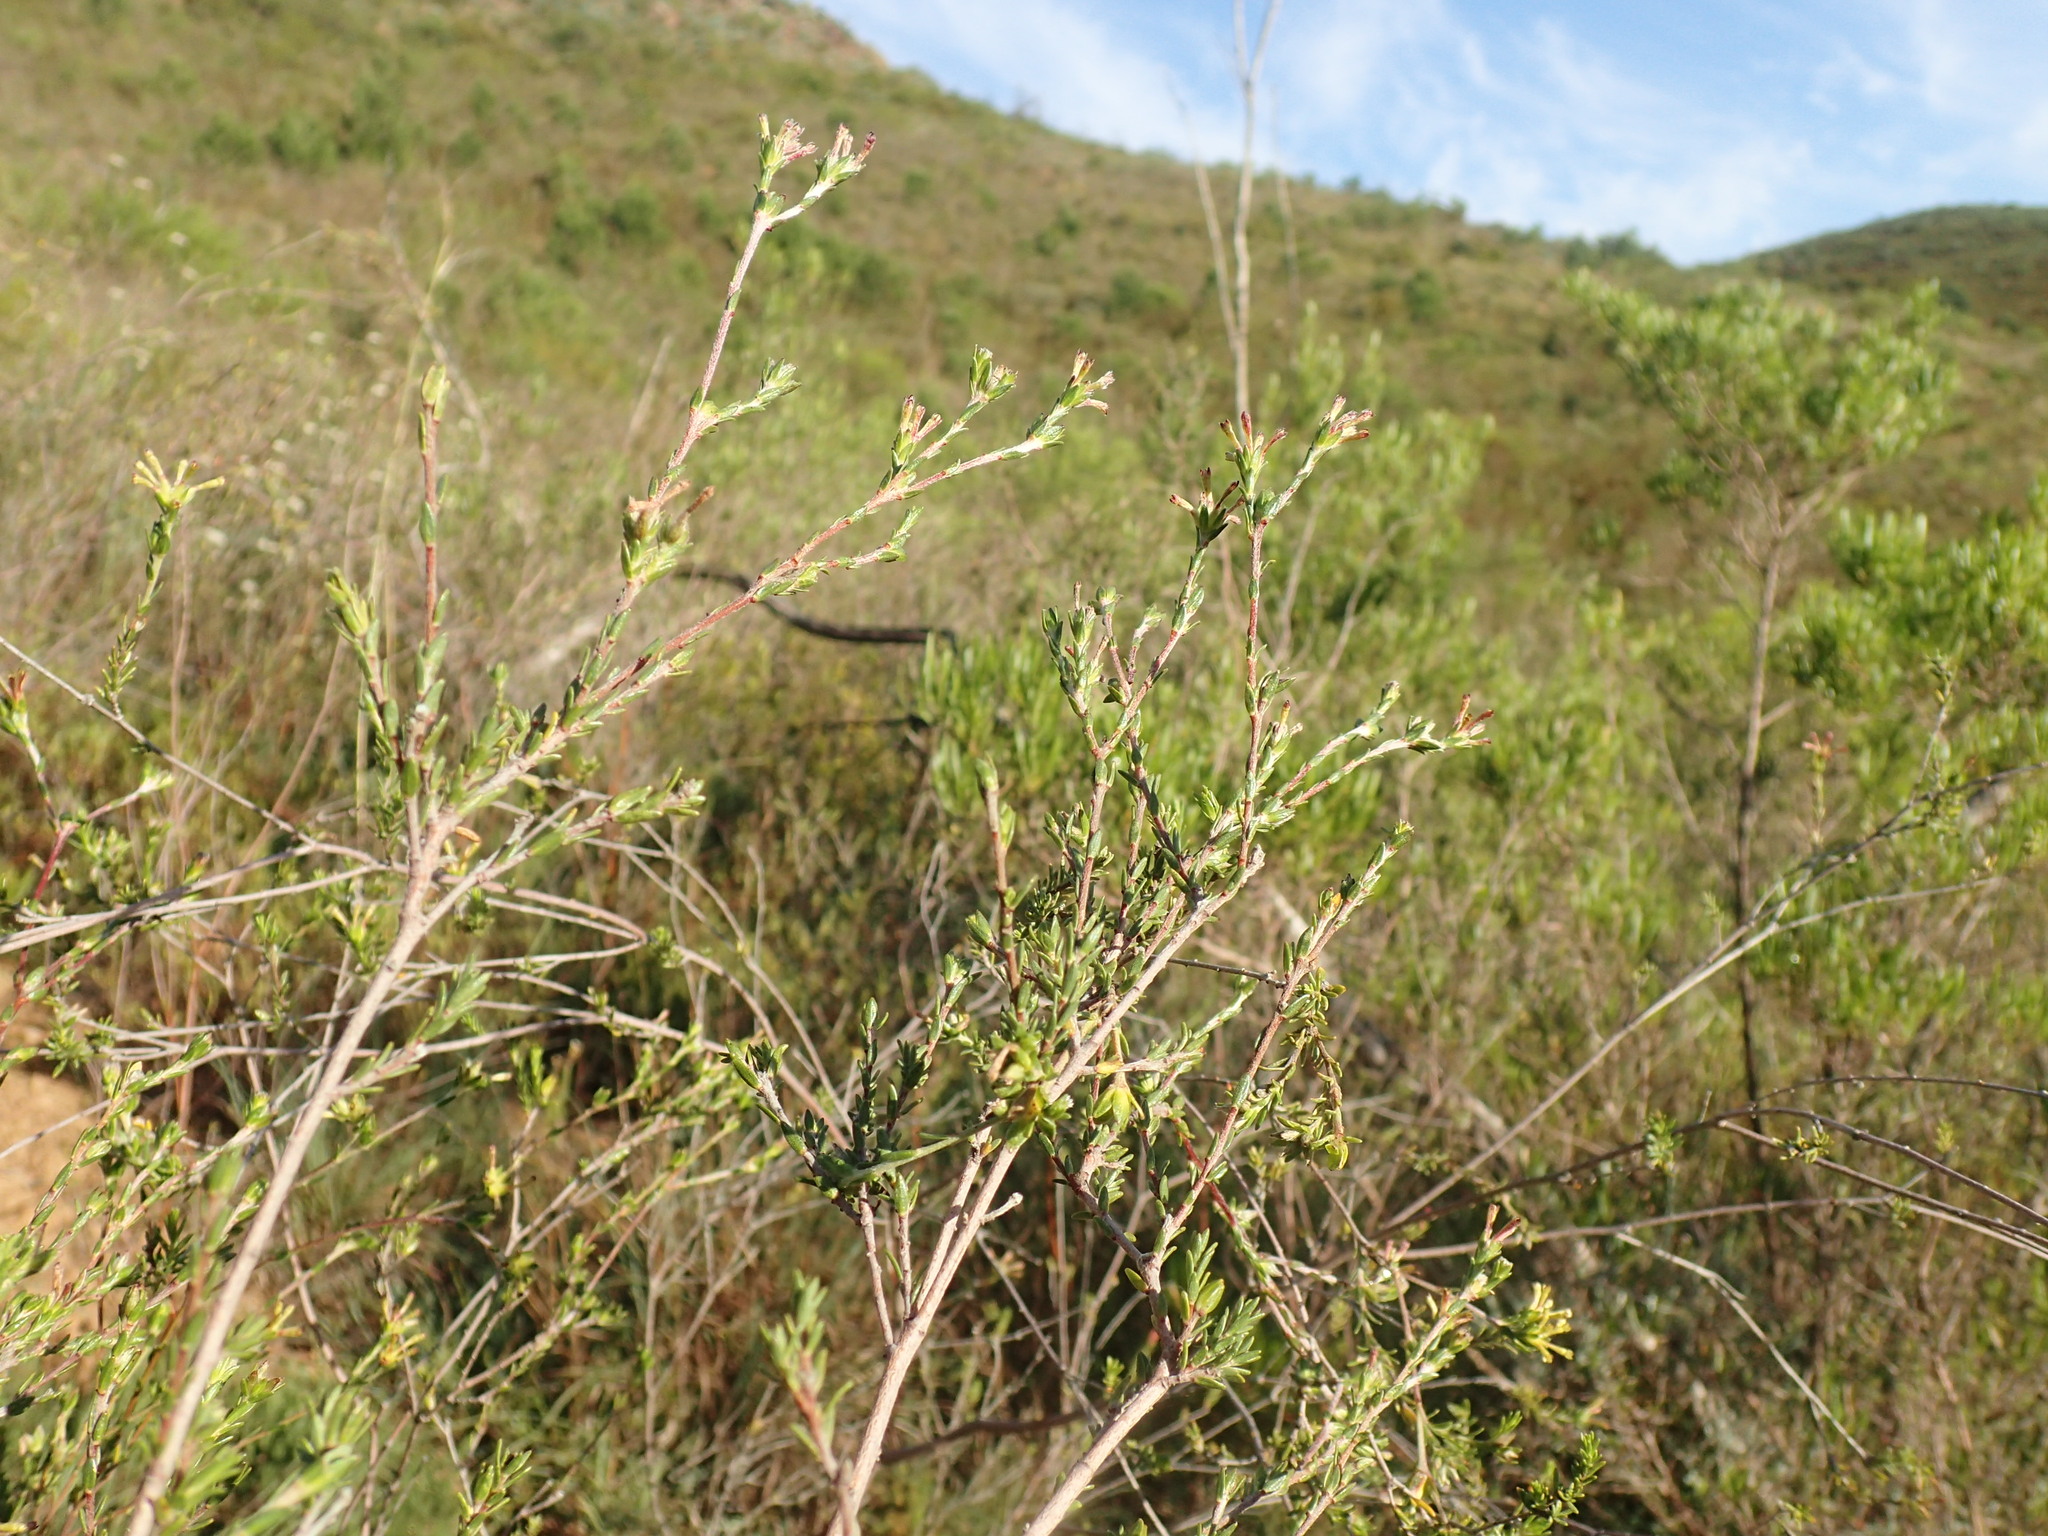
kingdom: Plantae
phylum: Tracheophyta
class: Magnoliopsida
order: Malvales
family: Thymelaeaceae
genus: Gnidia
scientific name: Gnidia laxa
